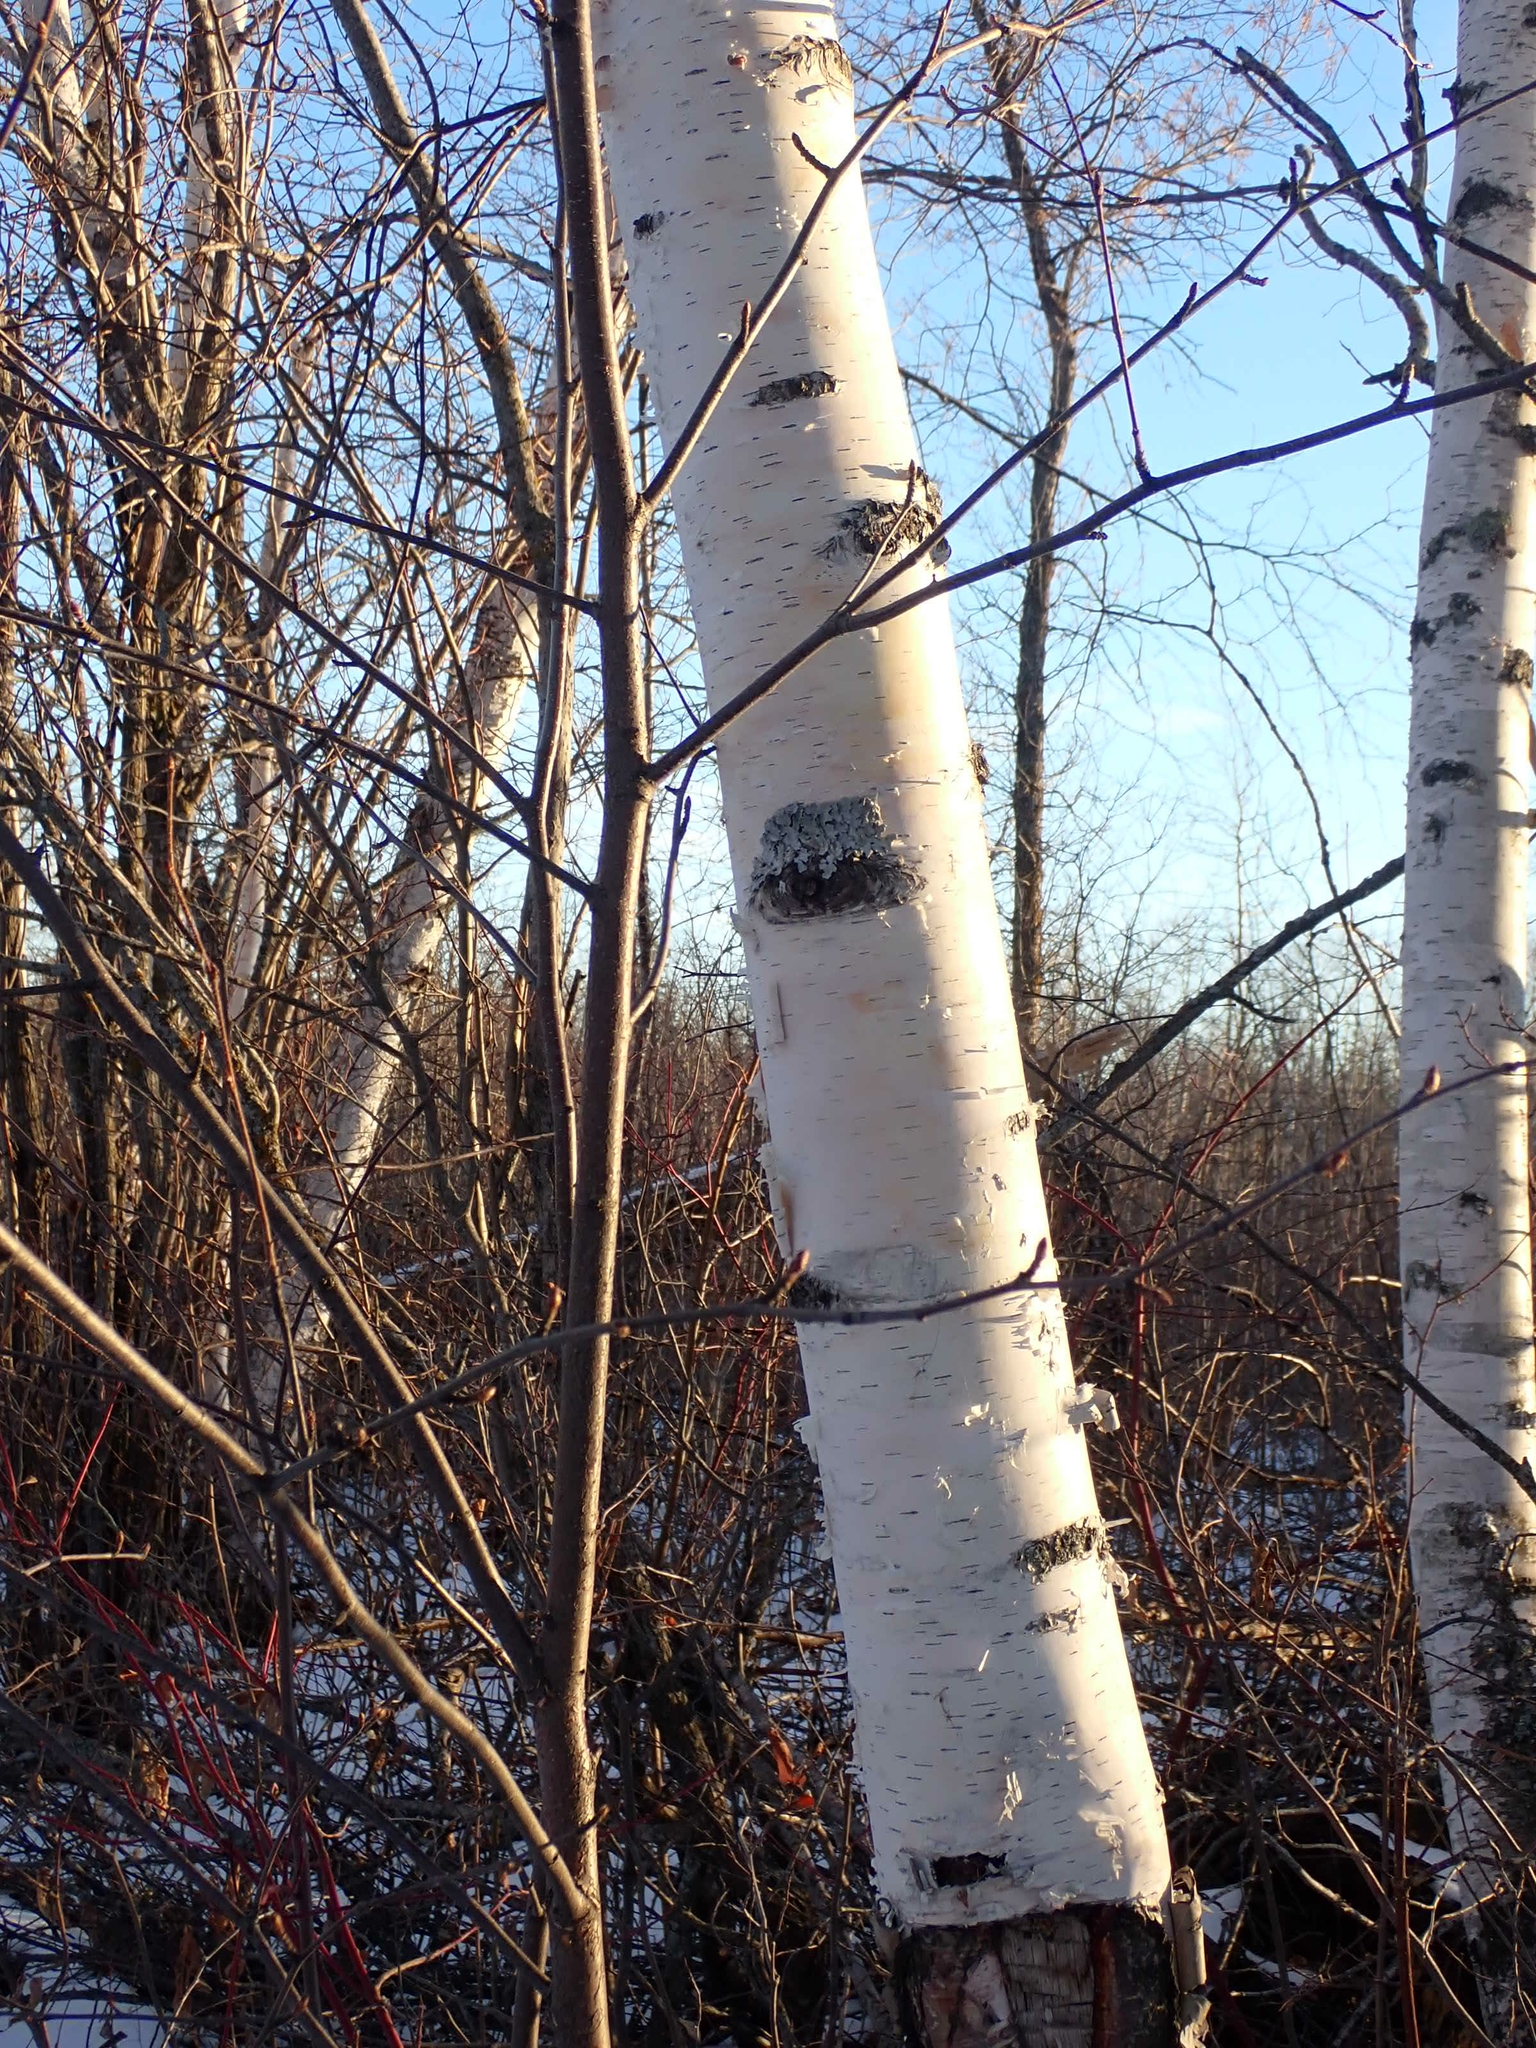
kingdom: Plantae
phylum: Tracheophyta
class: Magnoliopsida
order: Fagales
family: Betulaceae
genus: Betula
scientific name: Betula papyrifera
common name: Paper birch
